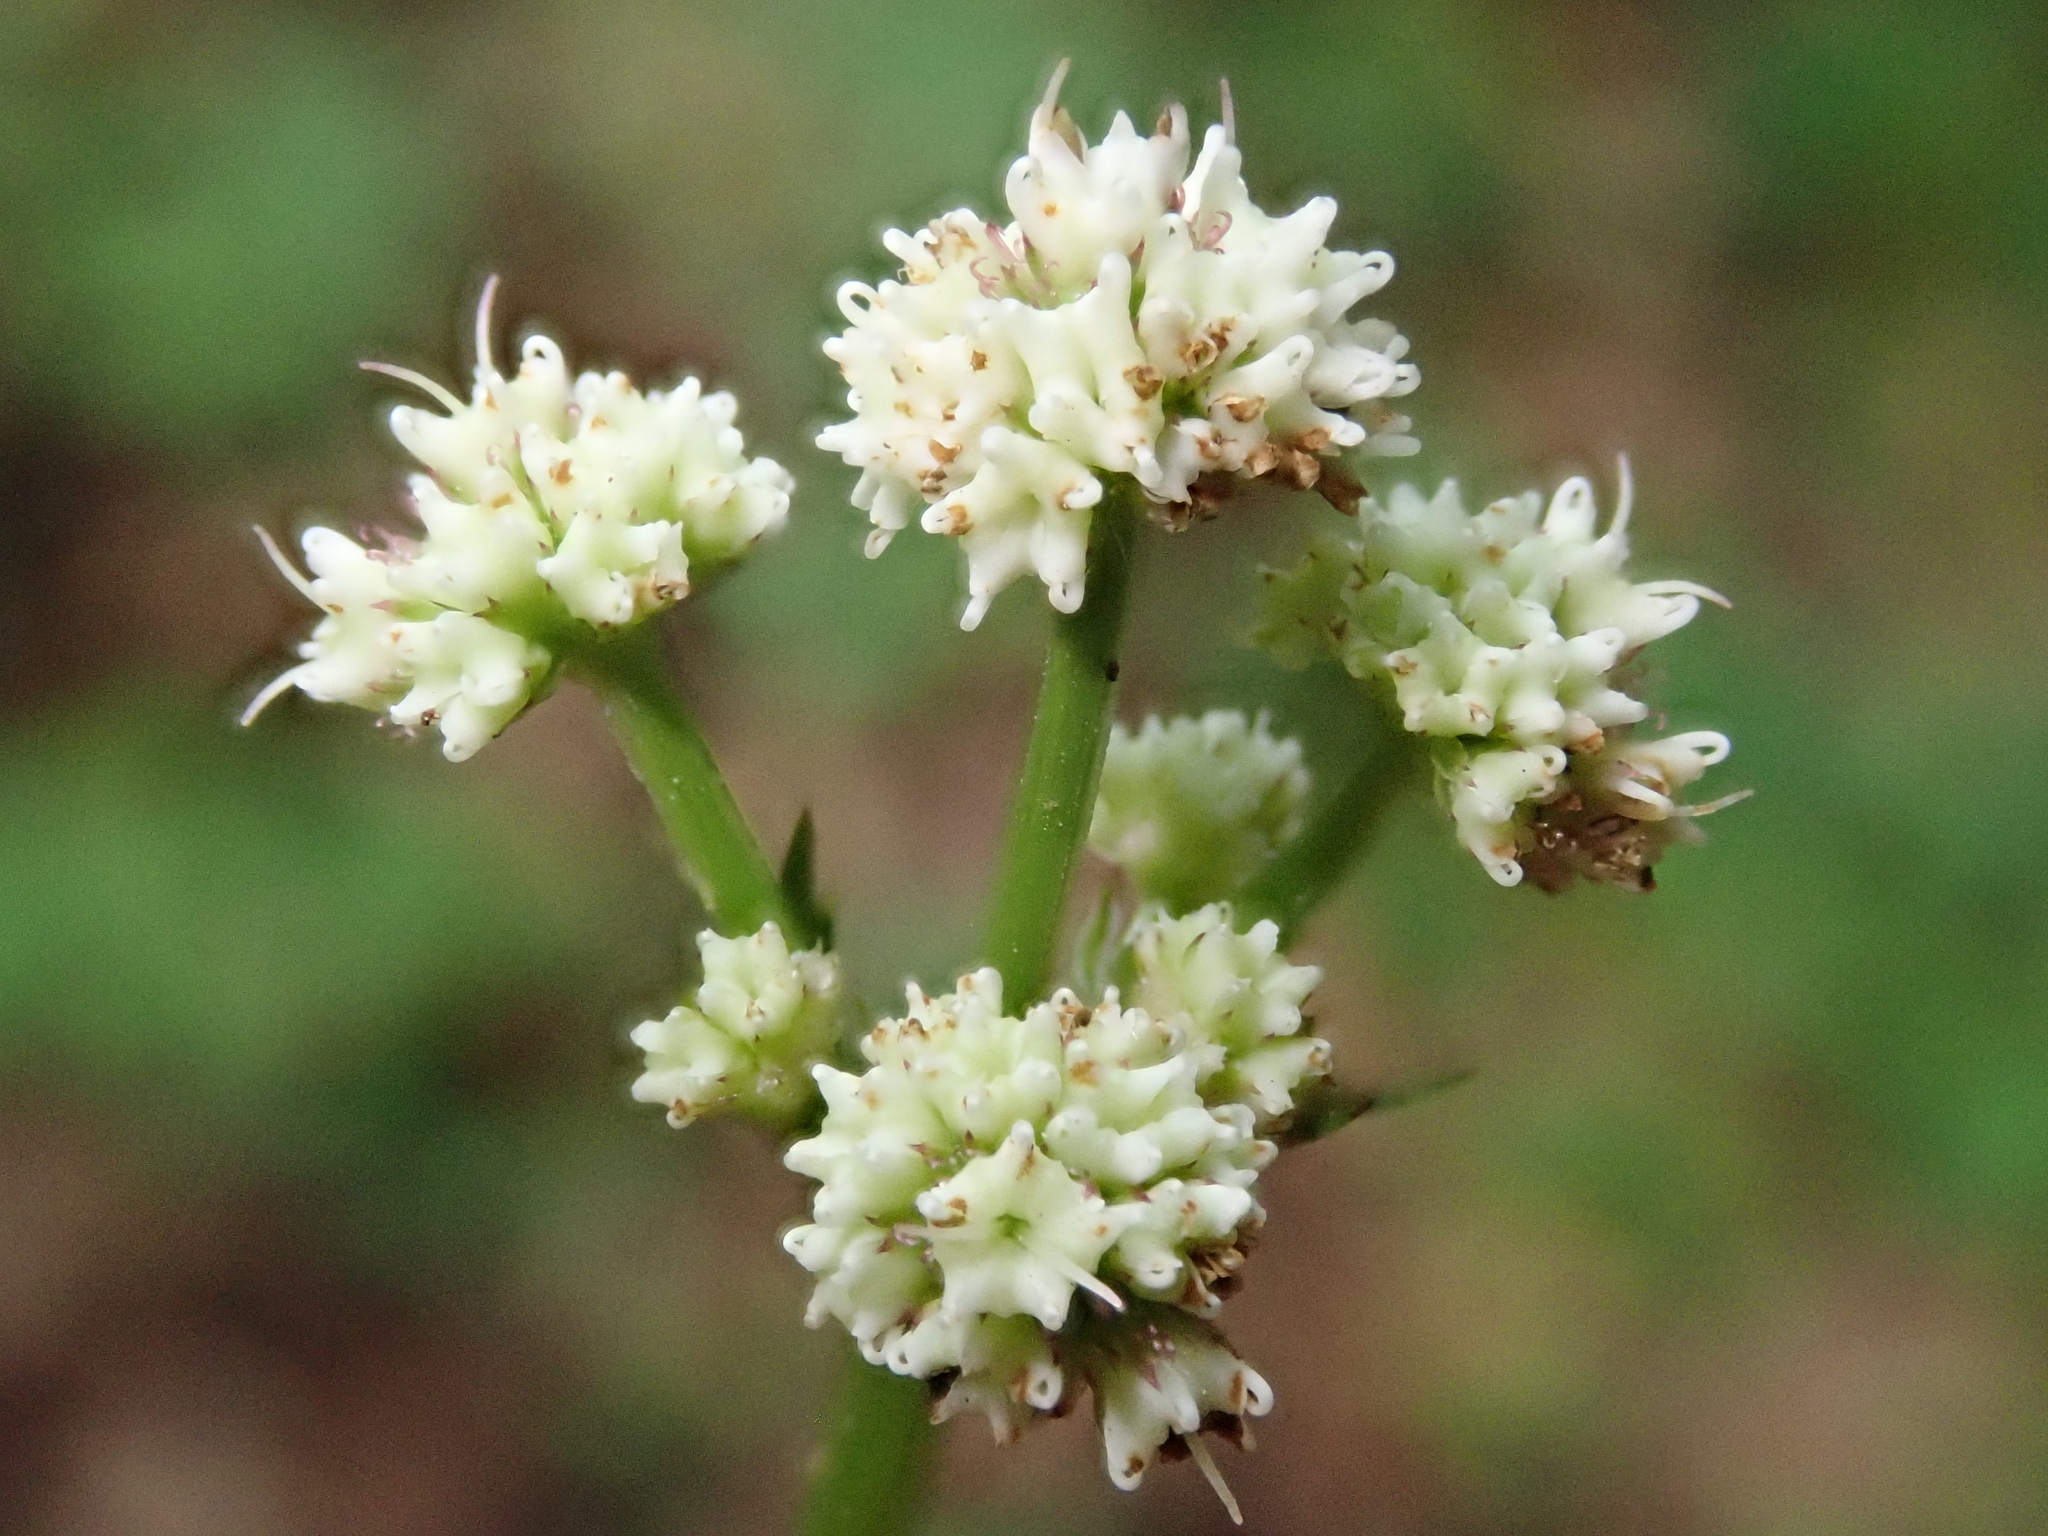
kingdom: Plantae
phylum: Tracheophyta
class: Magnoliopsida
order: Apiales
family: Apiaceae
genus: Sanicula
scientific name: Sanicula europaea
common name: Sanicle
